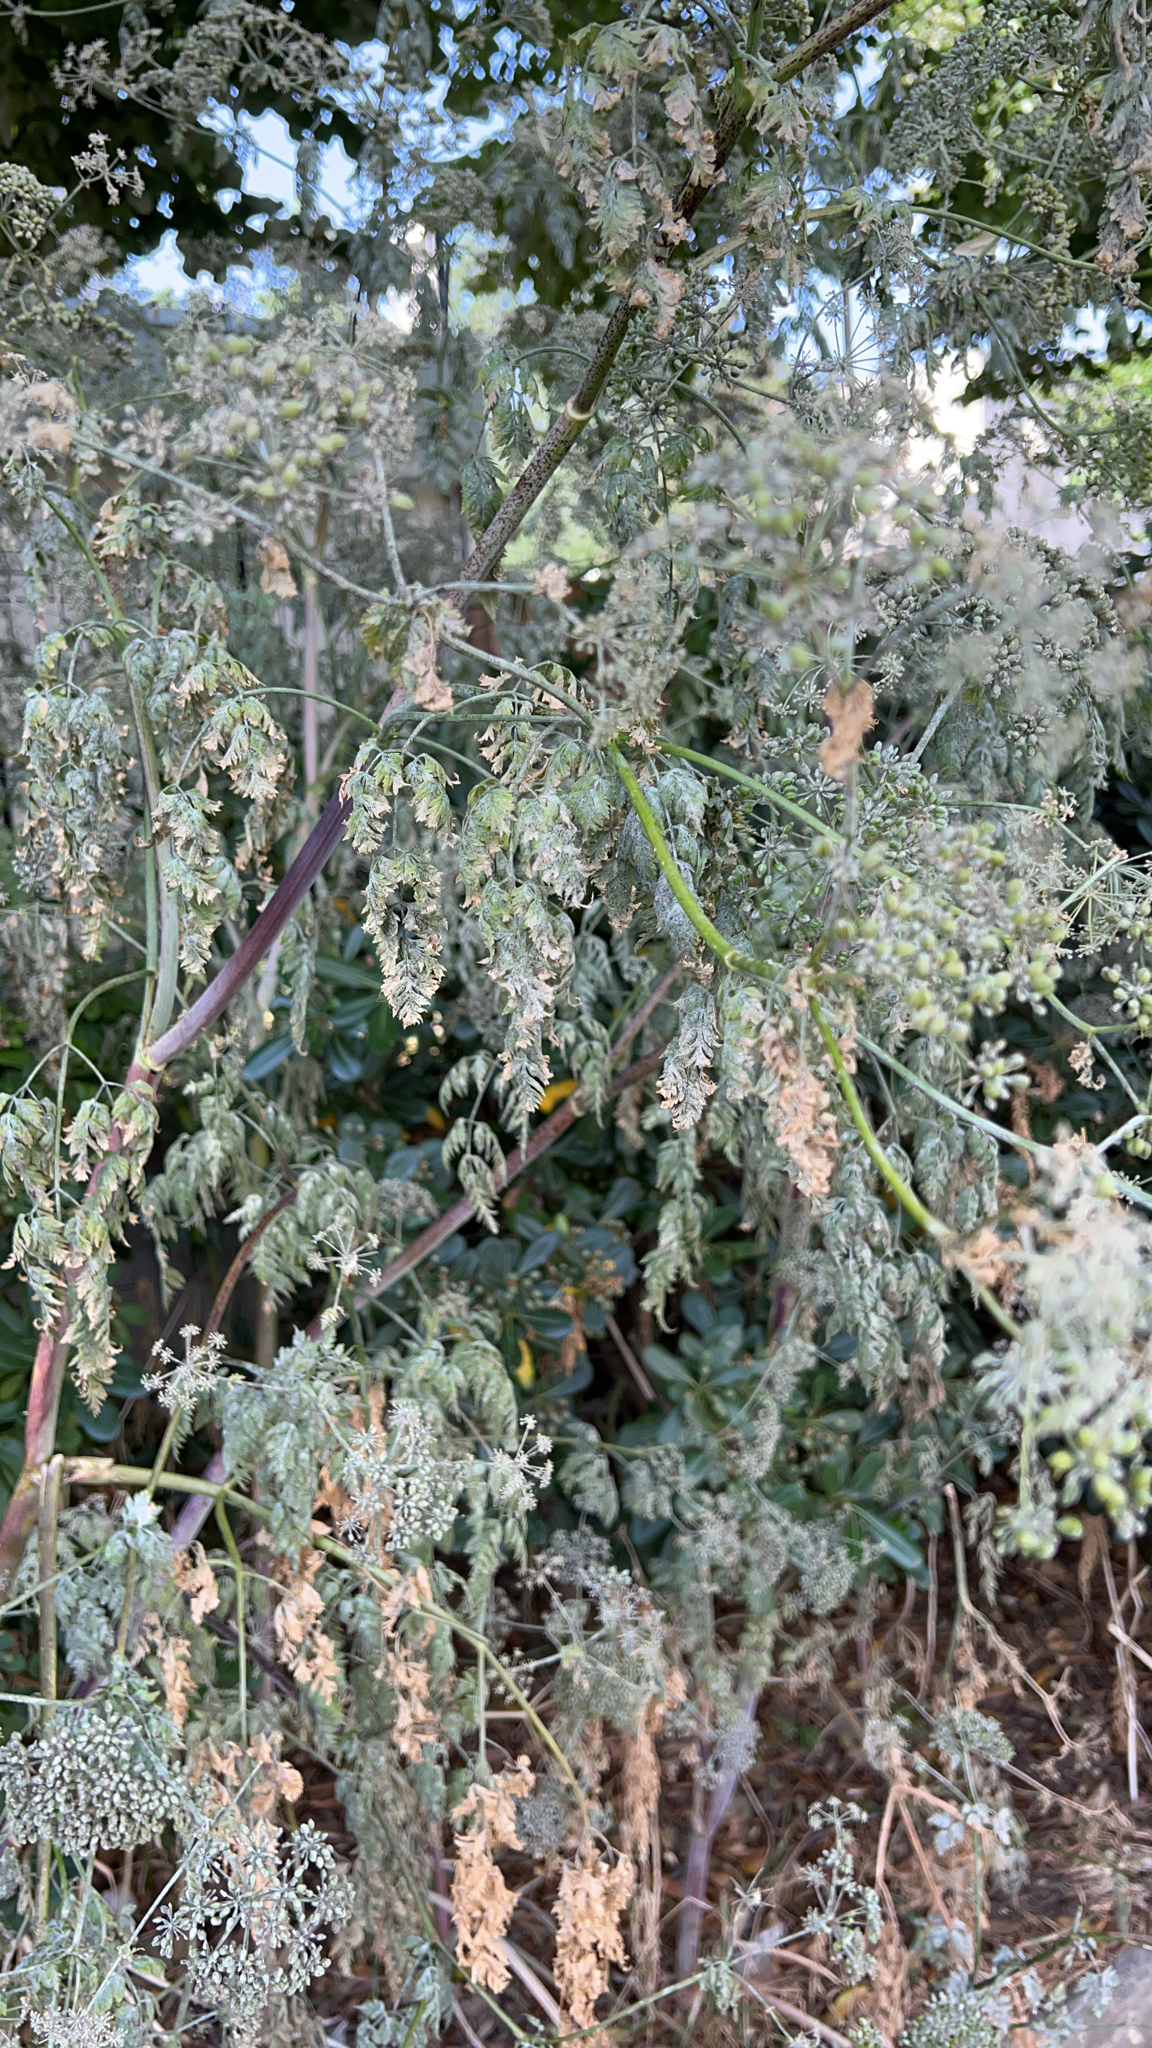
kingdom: Plantae
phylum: Tracheophyta
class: Magnoliopsida
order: Apiales
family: Apiaceae
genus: Conium
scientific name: Conium maculatum
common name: Hemlock
